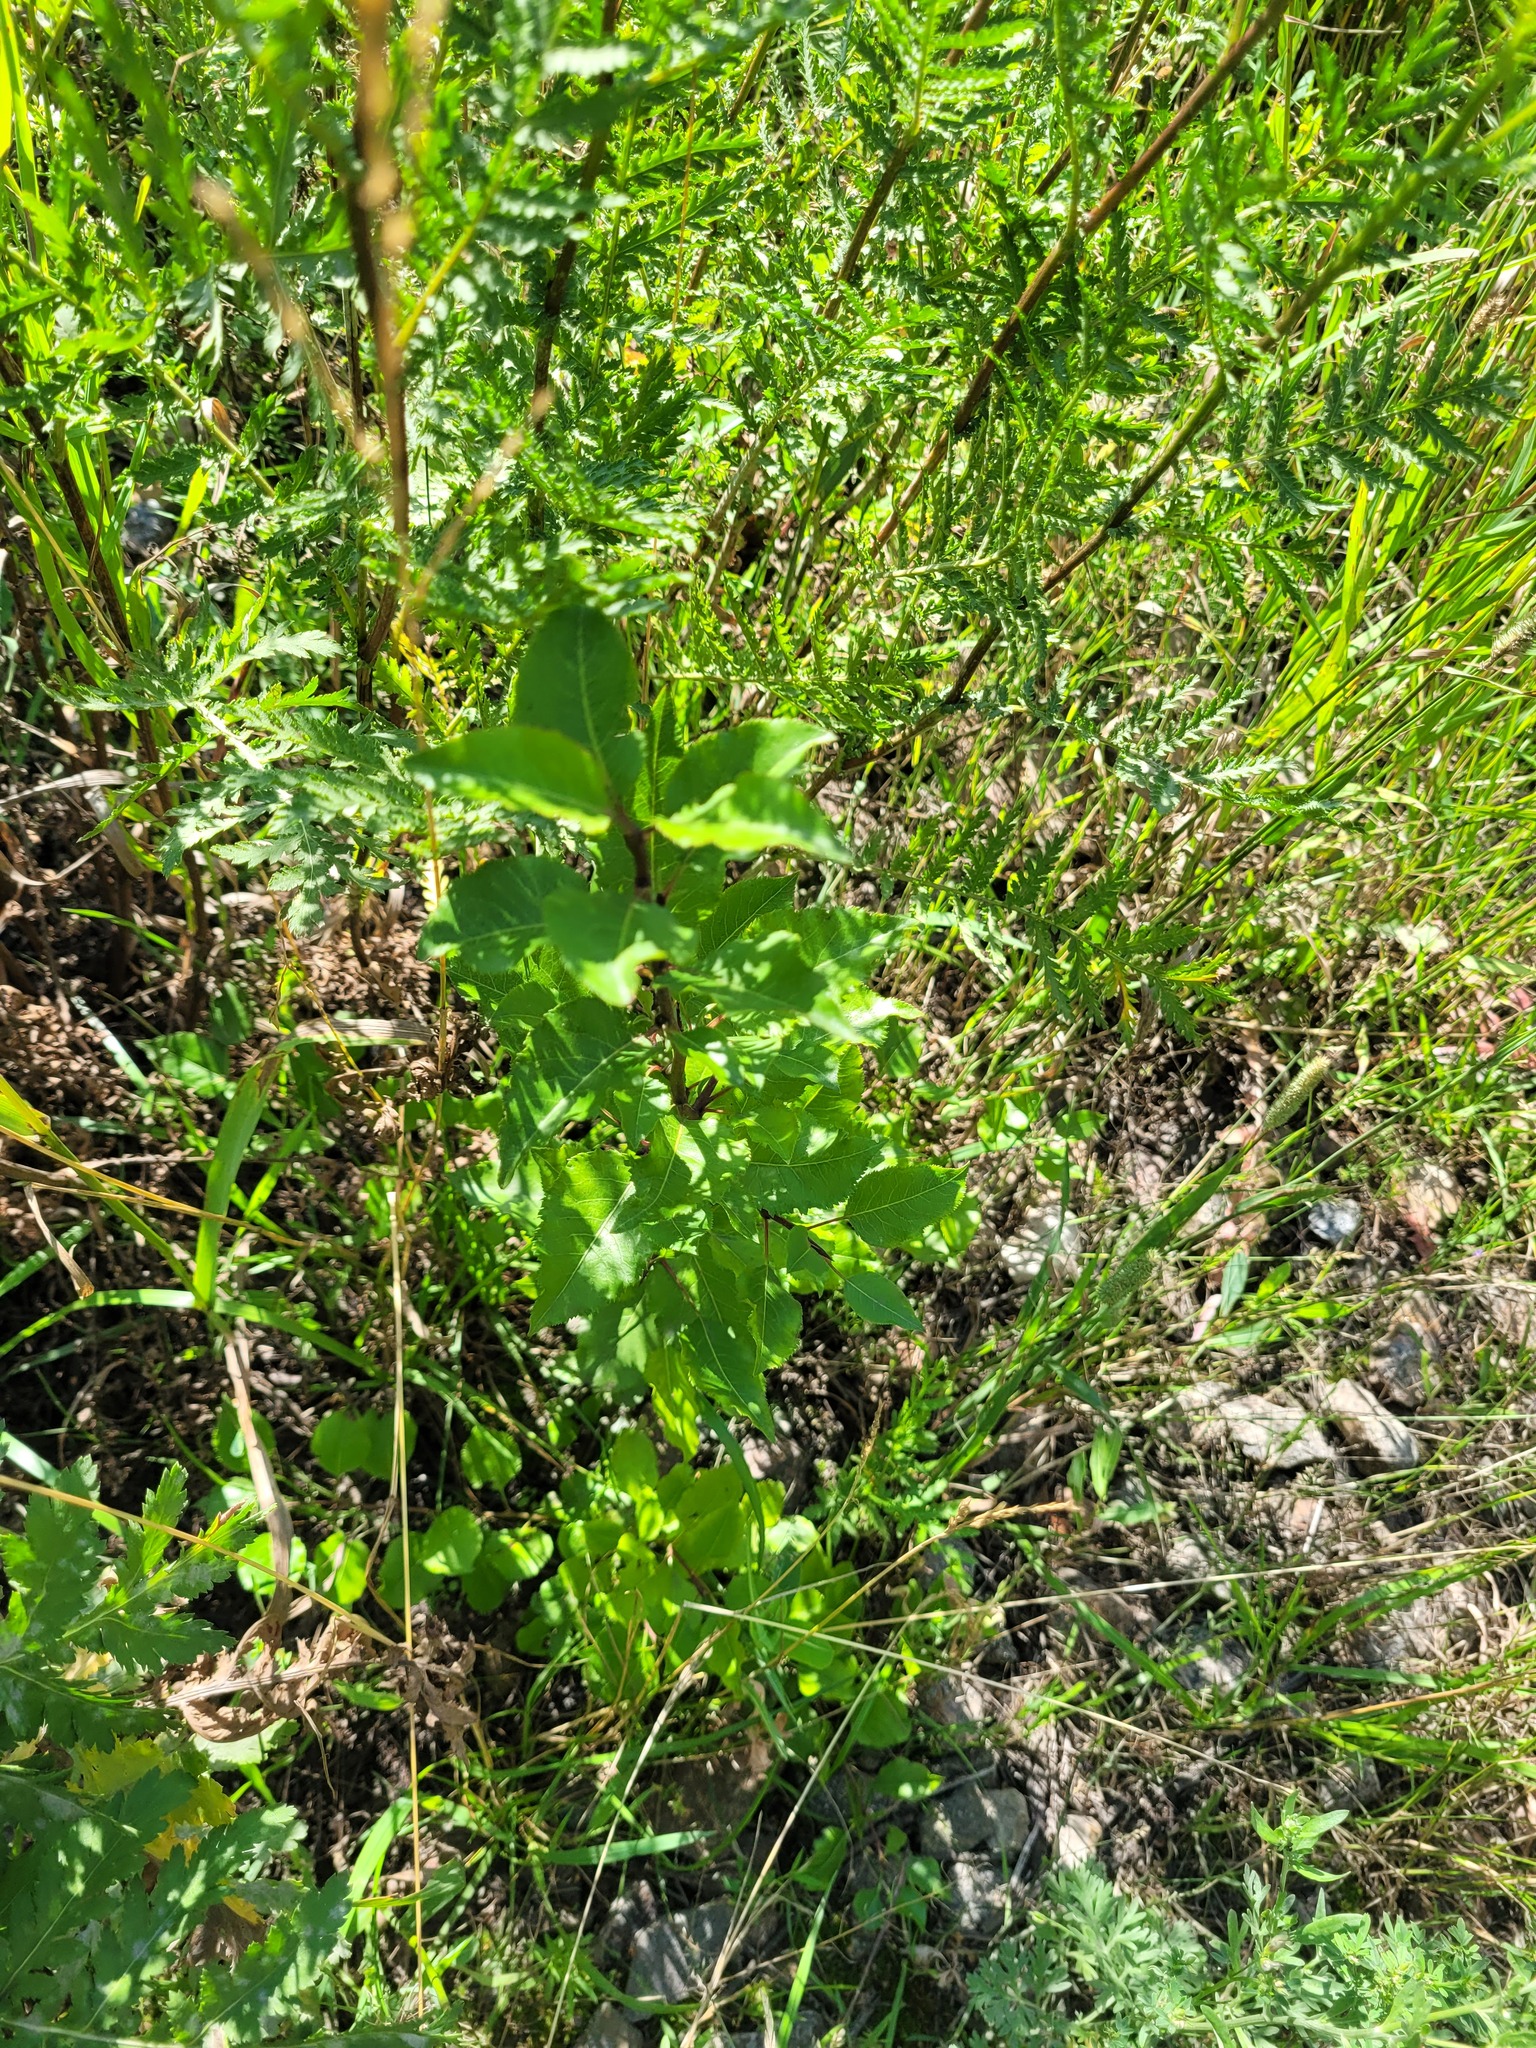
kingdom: Plantae
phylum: Tracheophyta
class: Magnoliopsida
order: Rosales
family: Rosaceae
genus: Pyrus
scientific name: Pyrus communis
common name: Pear
